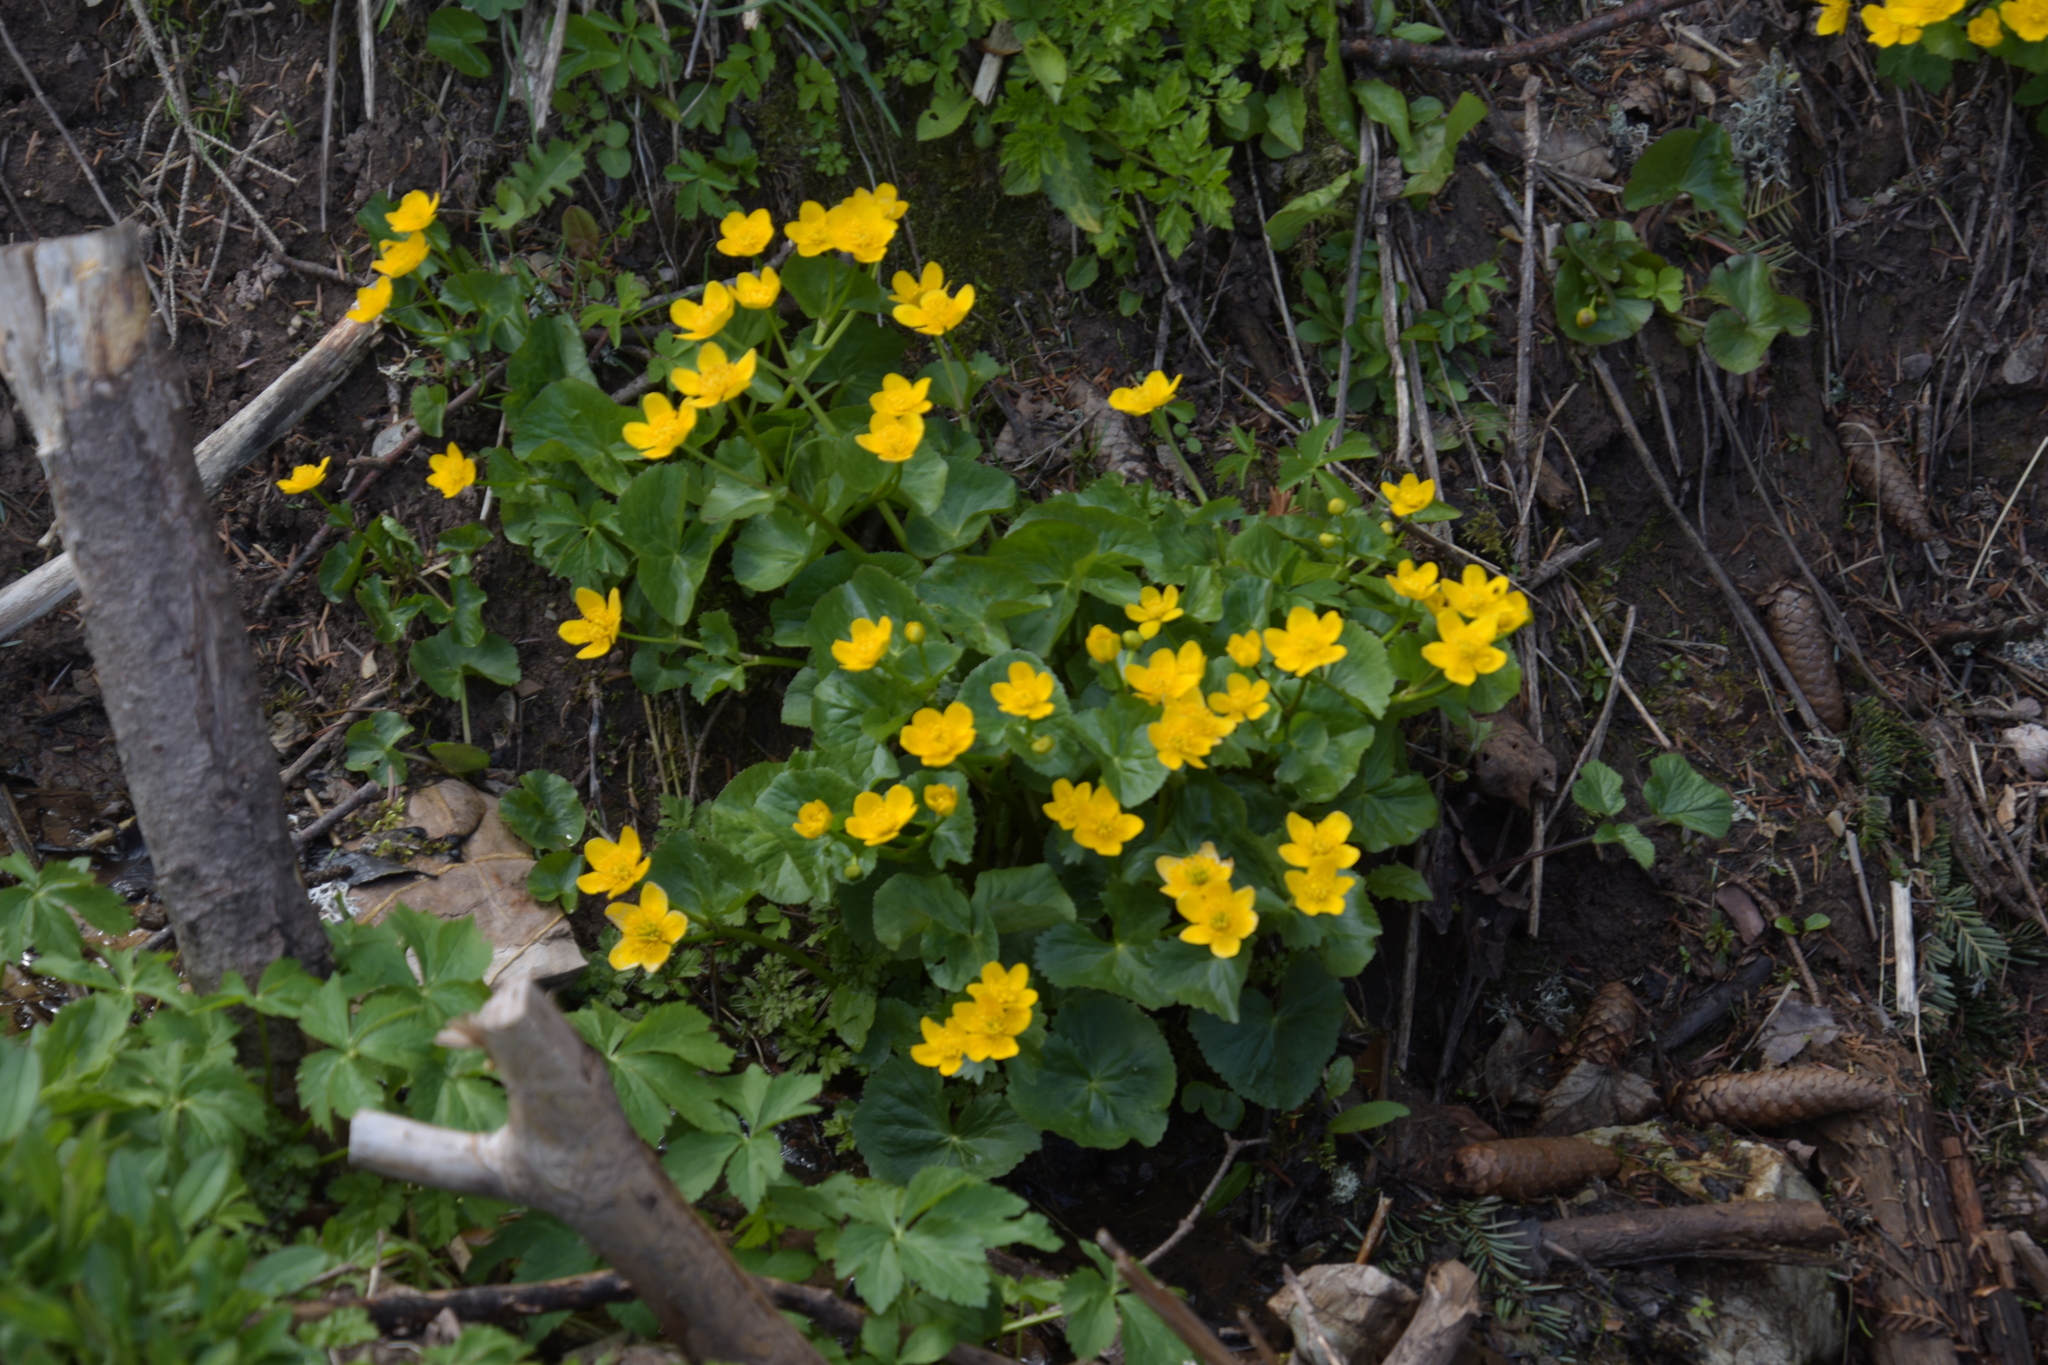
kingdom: Plantae
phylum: Tracheophyta
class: Magnoliopsida
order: Ranunculales
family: Ranunculaceae
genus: Caltha
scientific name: Caltha palustris
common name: Marsh marigold
